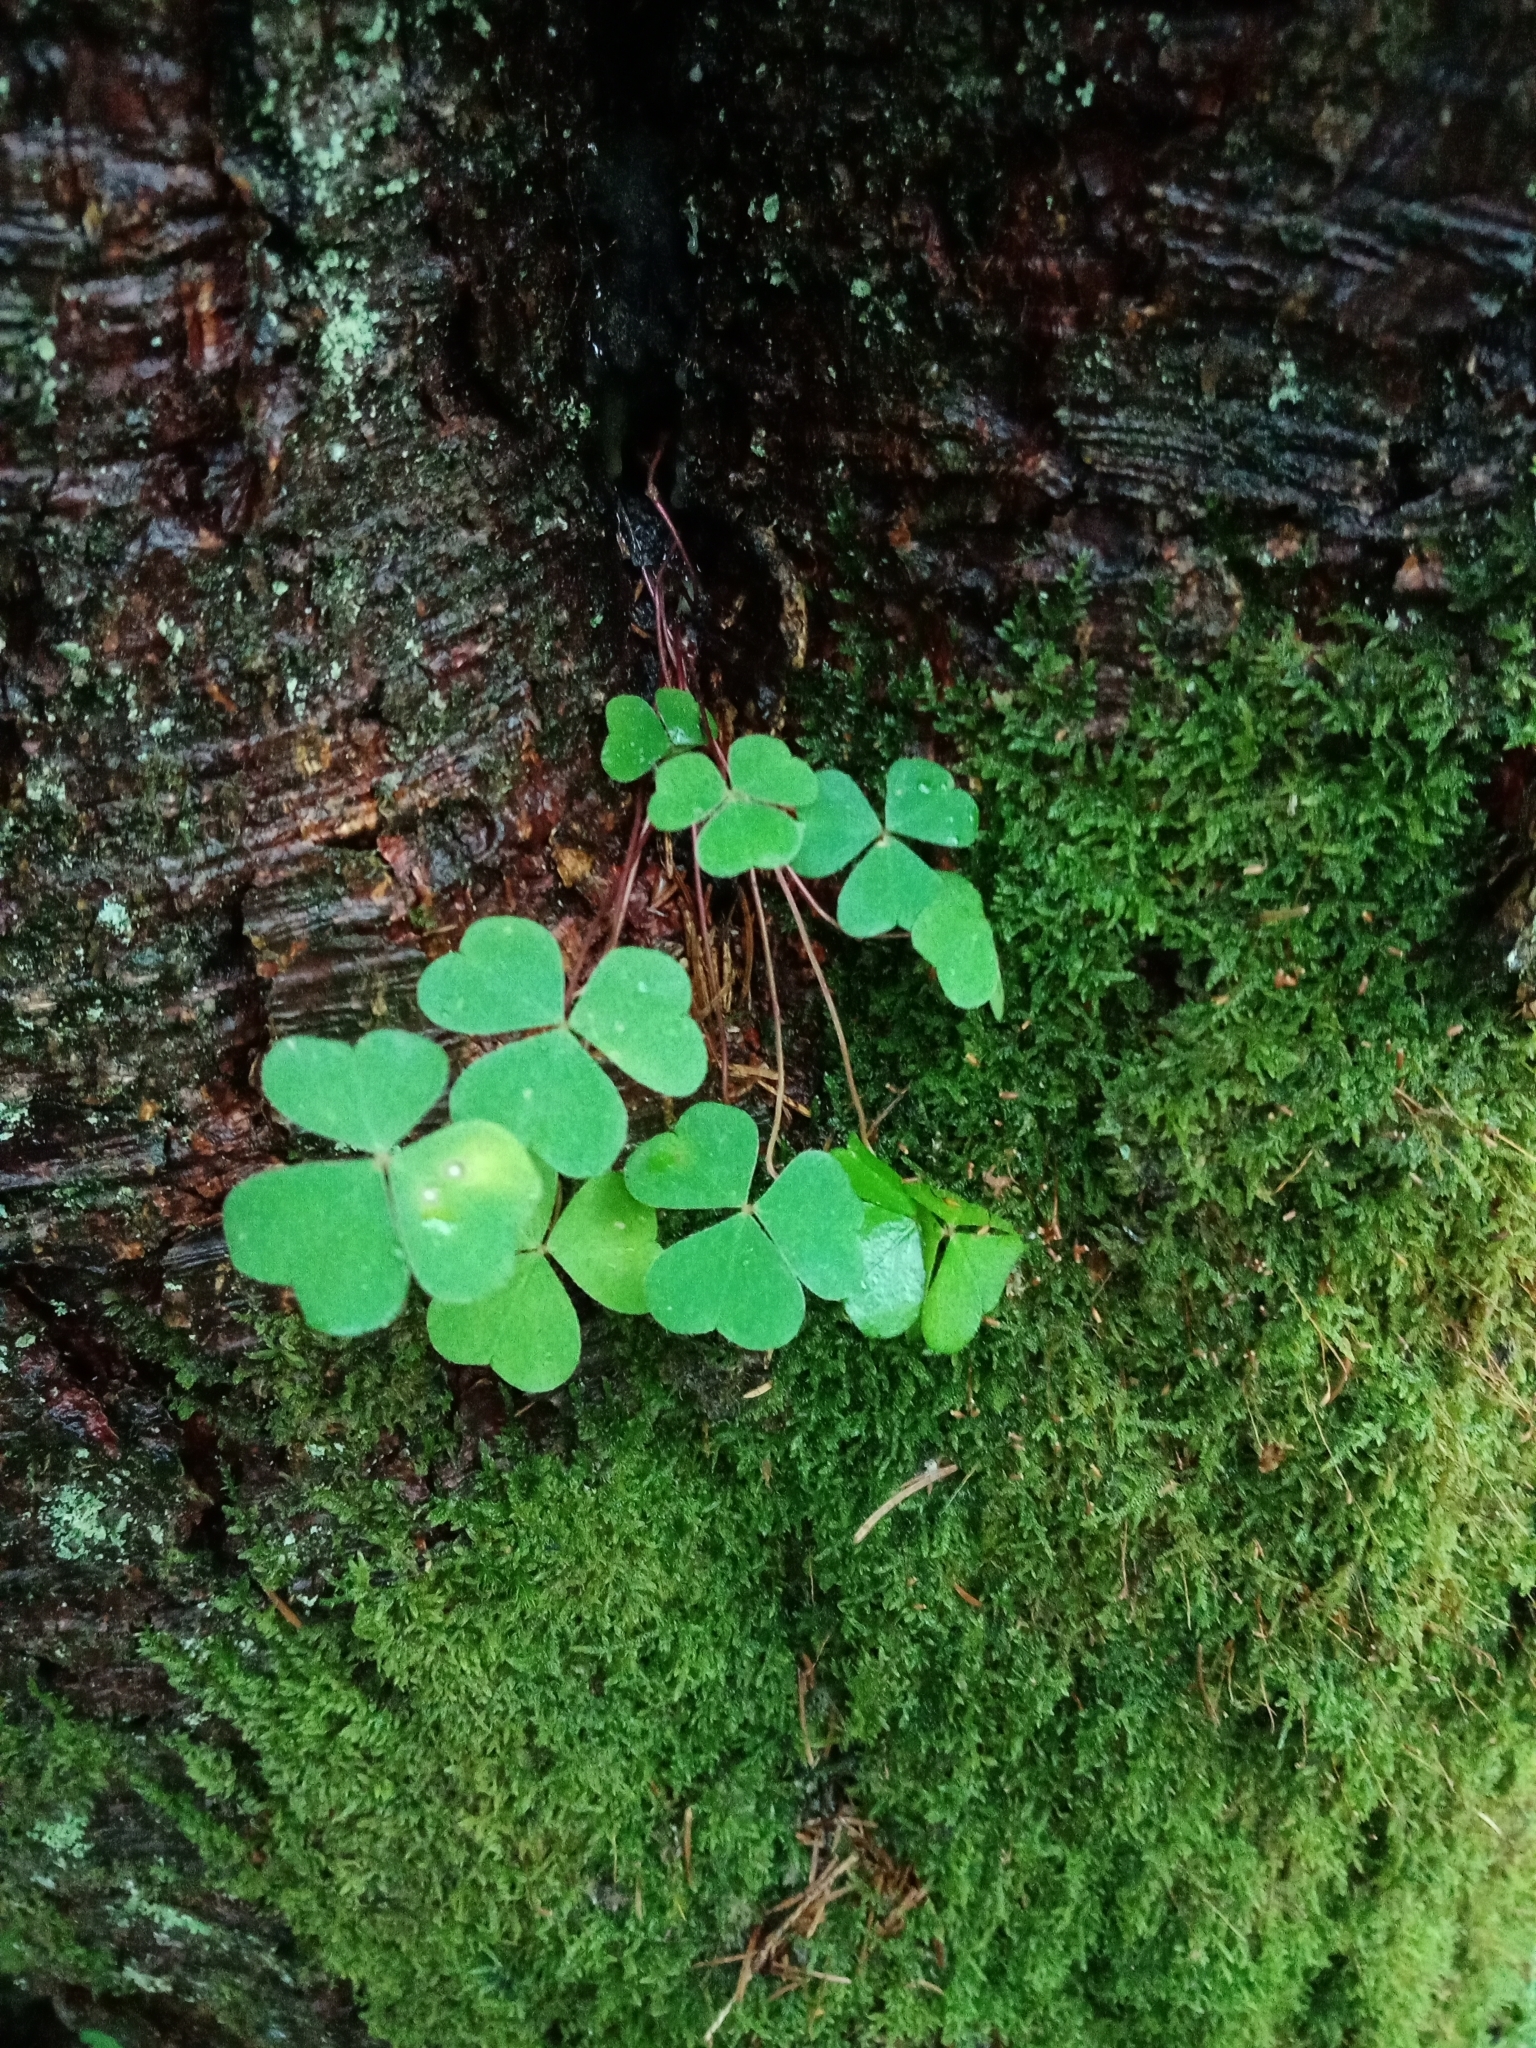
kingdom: Plantae
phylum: Tracheophyta
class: Magnoliopsida
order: Oxalidales
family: Oxalidaceae
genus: Oxalis
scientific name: Oxalis acetosella
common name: Wood-sorrel
